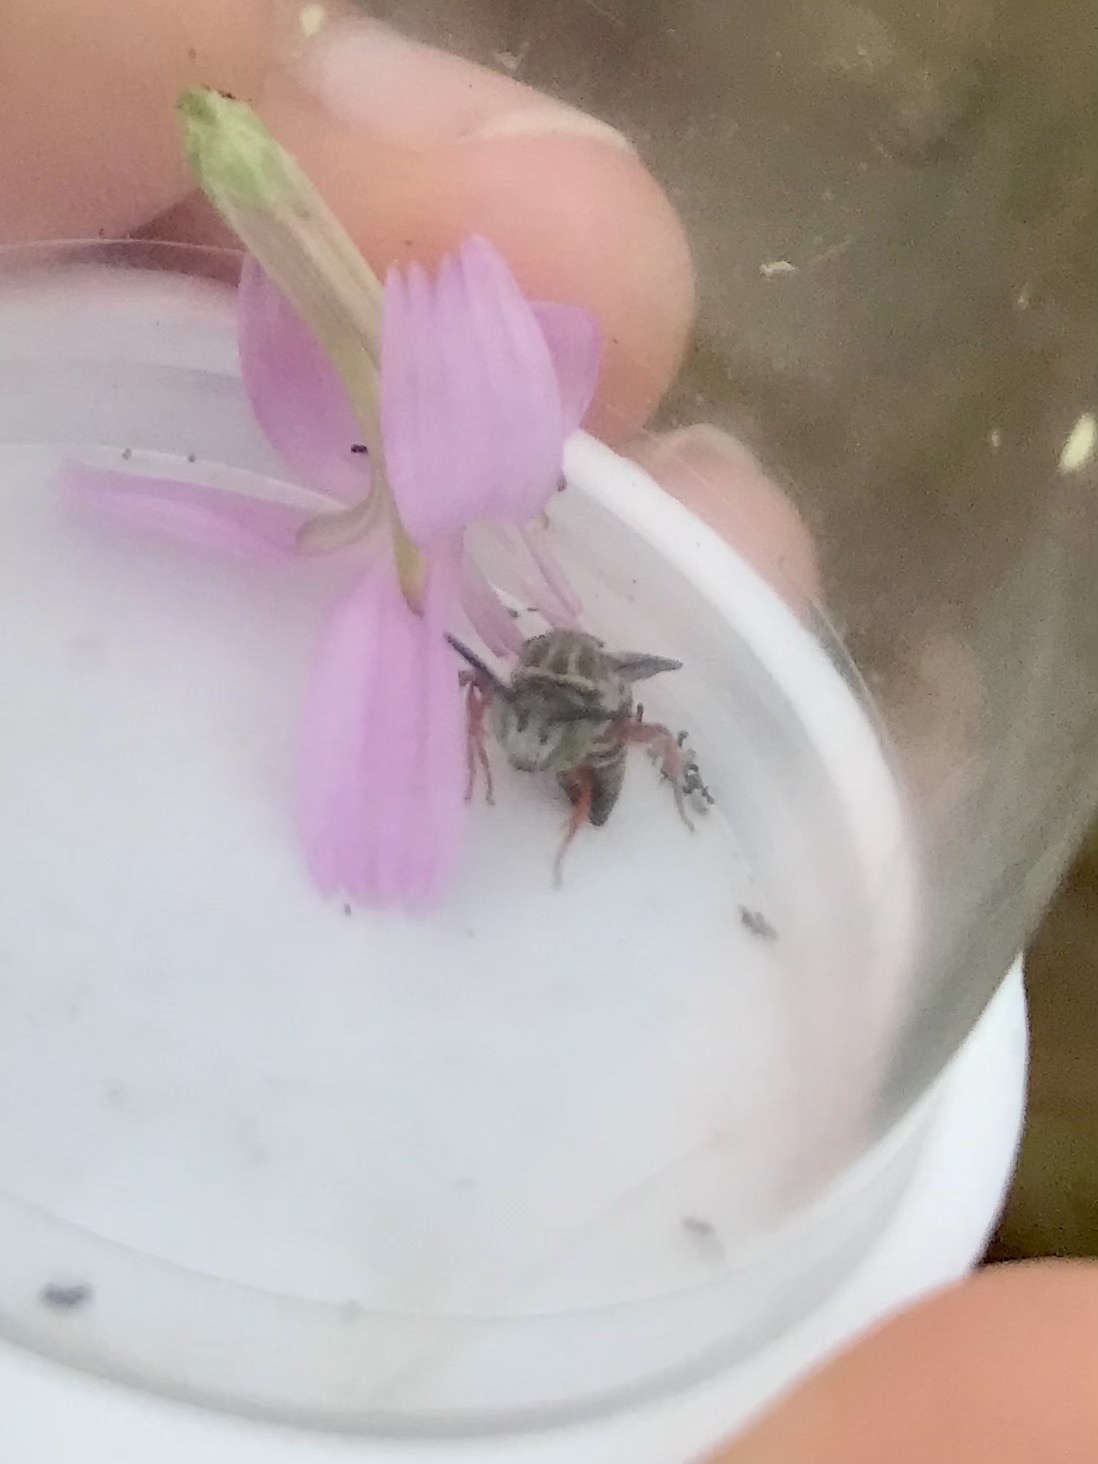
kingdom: Animalia
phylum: Arthropoda
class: Insecta
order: Hymenoptera
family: Apidae
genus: Epeolus
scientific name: Epeolus ainsliei
